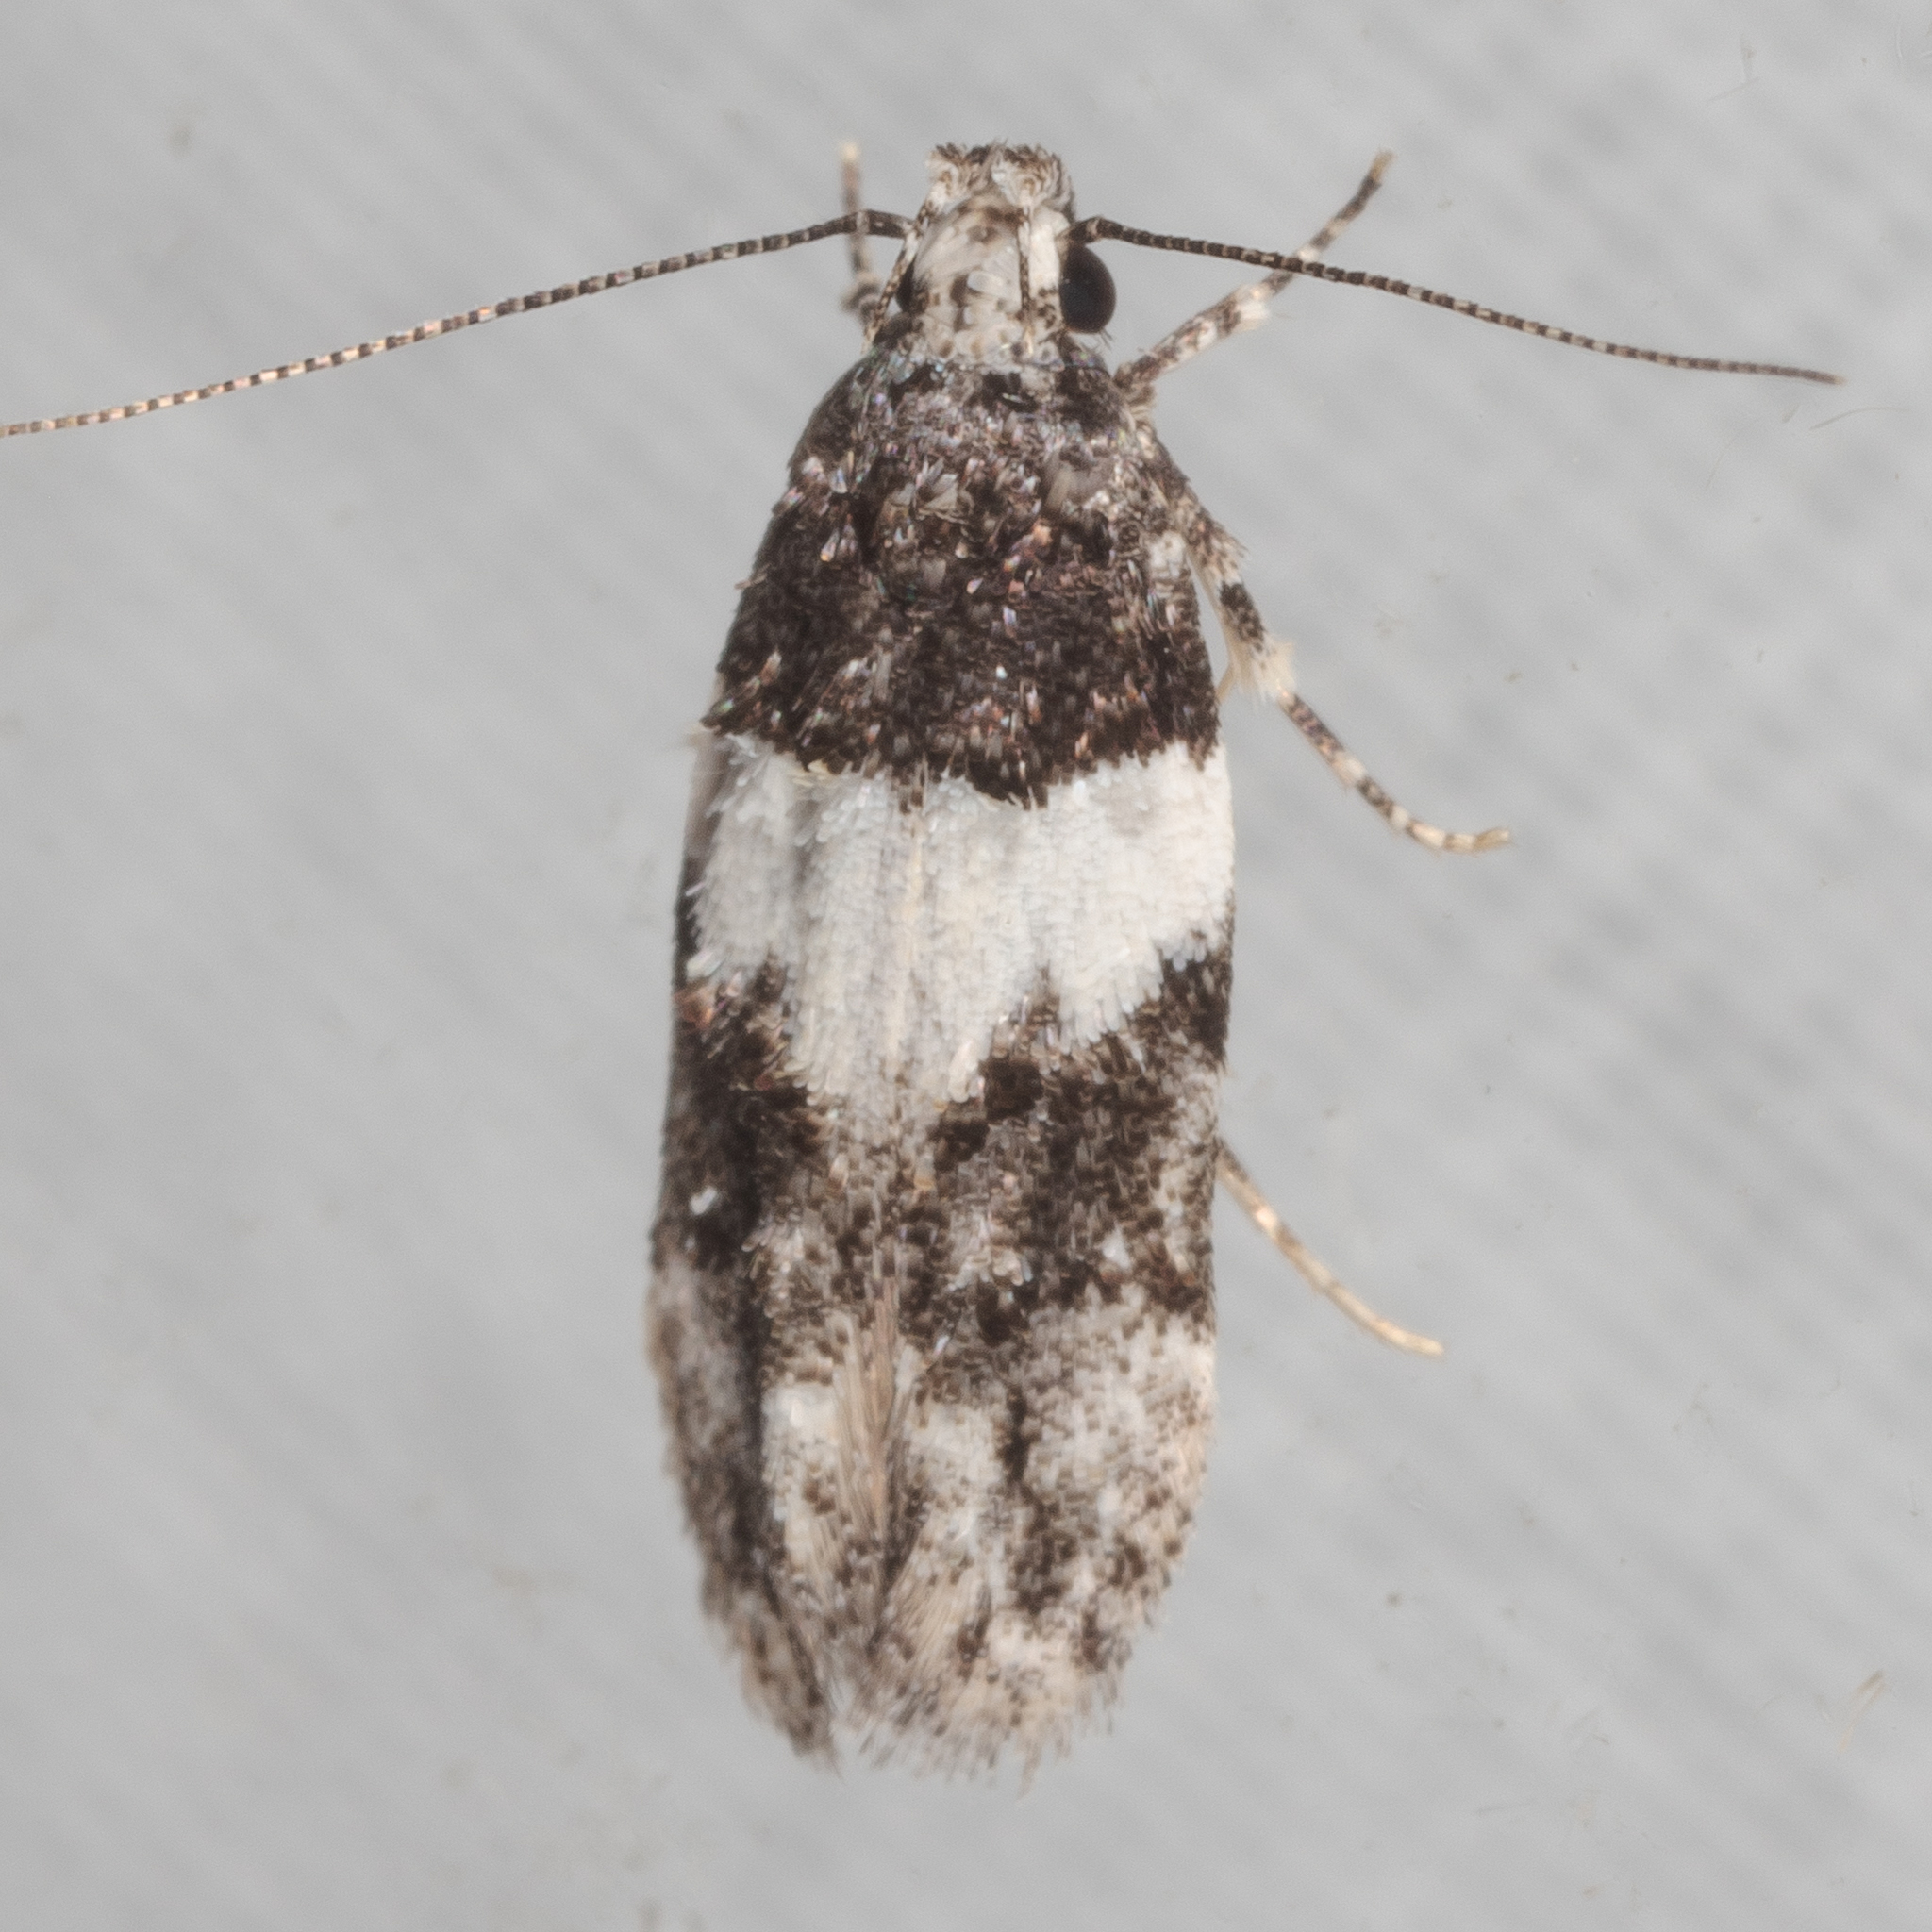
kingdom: Animalia
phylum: Arthropoda
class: Insecta
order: Lepidoptera
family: Gelechiidae
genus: Pubitelphusa
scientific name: Pubitelphusa latifasciella
